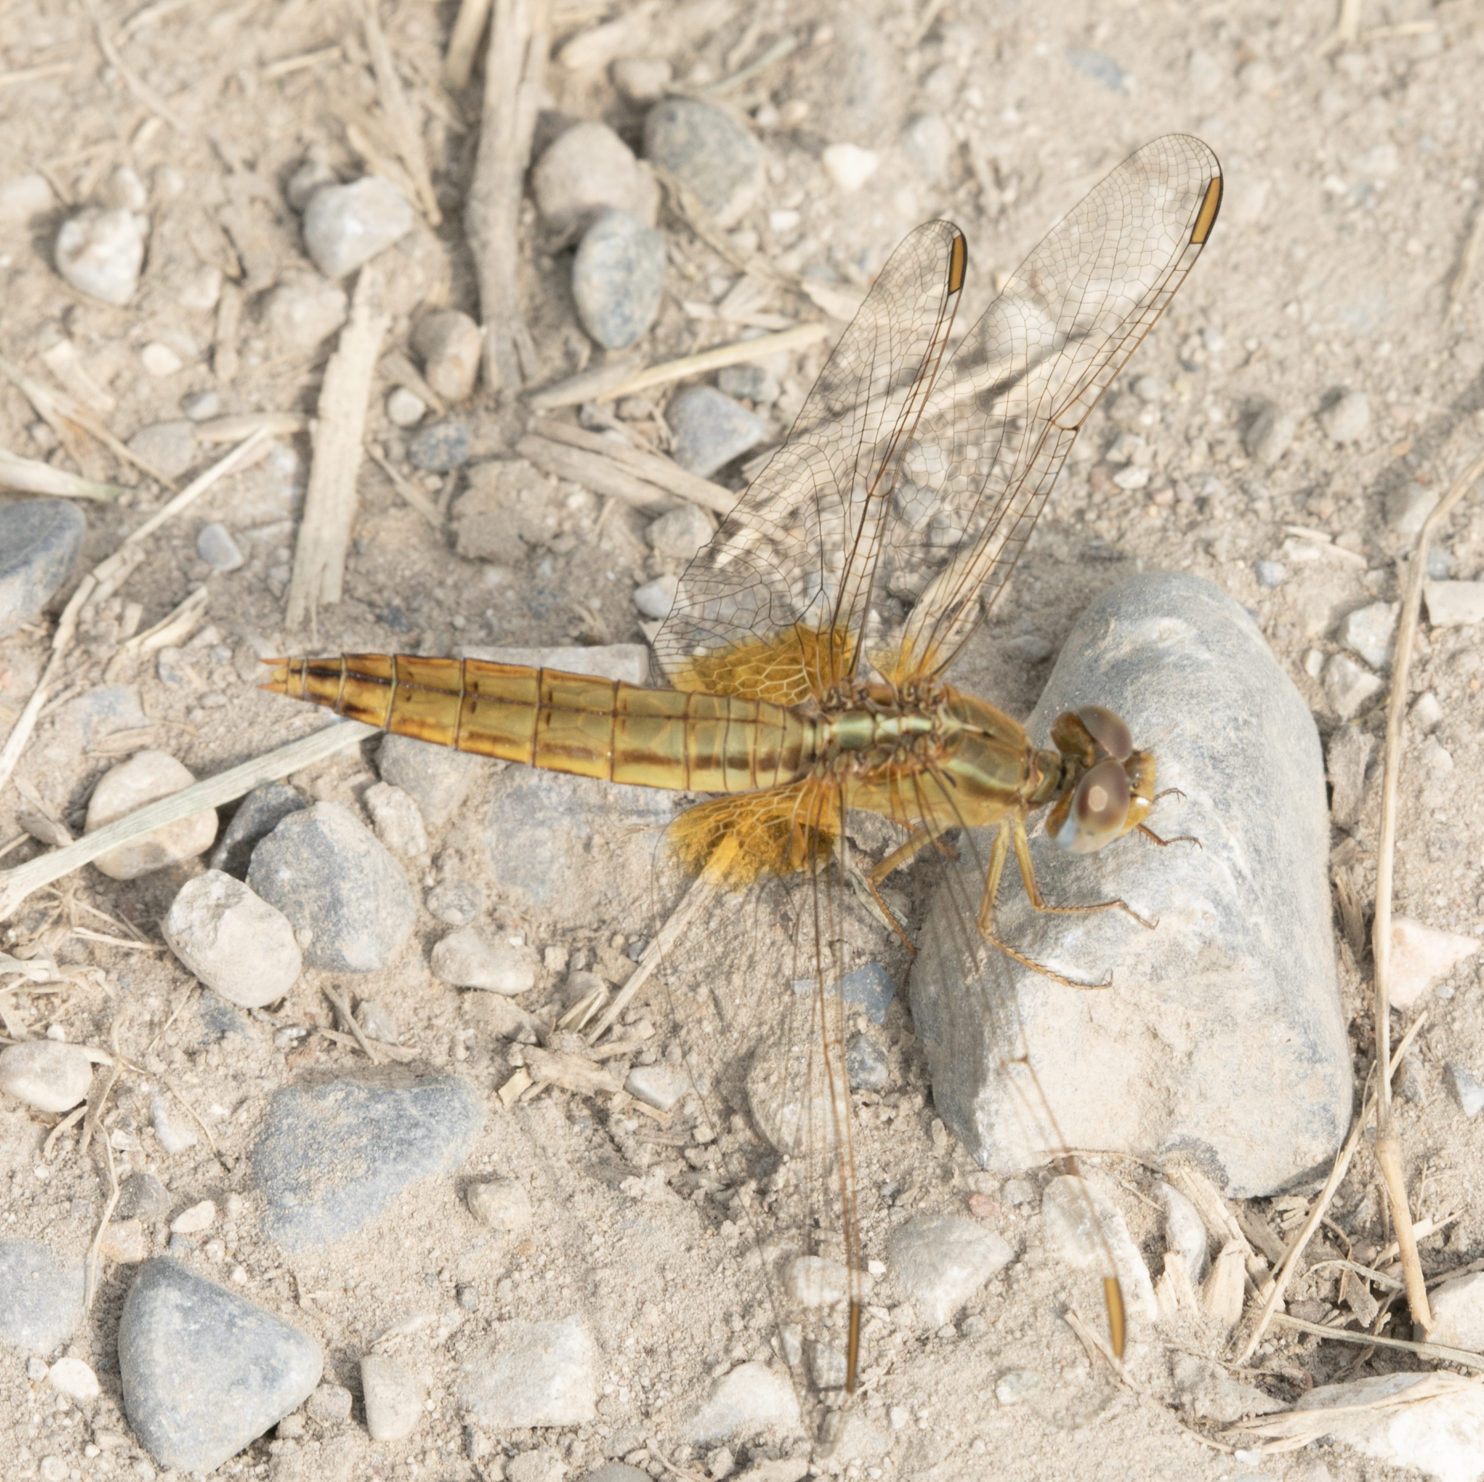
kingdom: Animalia
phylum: Arthropoda
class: Insecta
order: Odonata
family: Libellulidae
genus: Crocothemis
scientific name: Crocothemis erythraea
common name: Scarlet dragonfly
